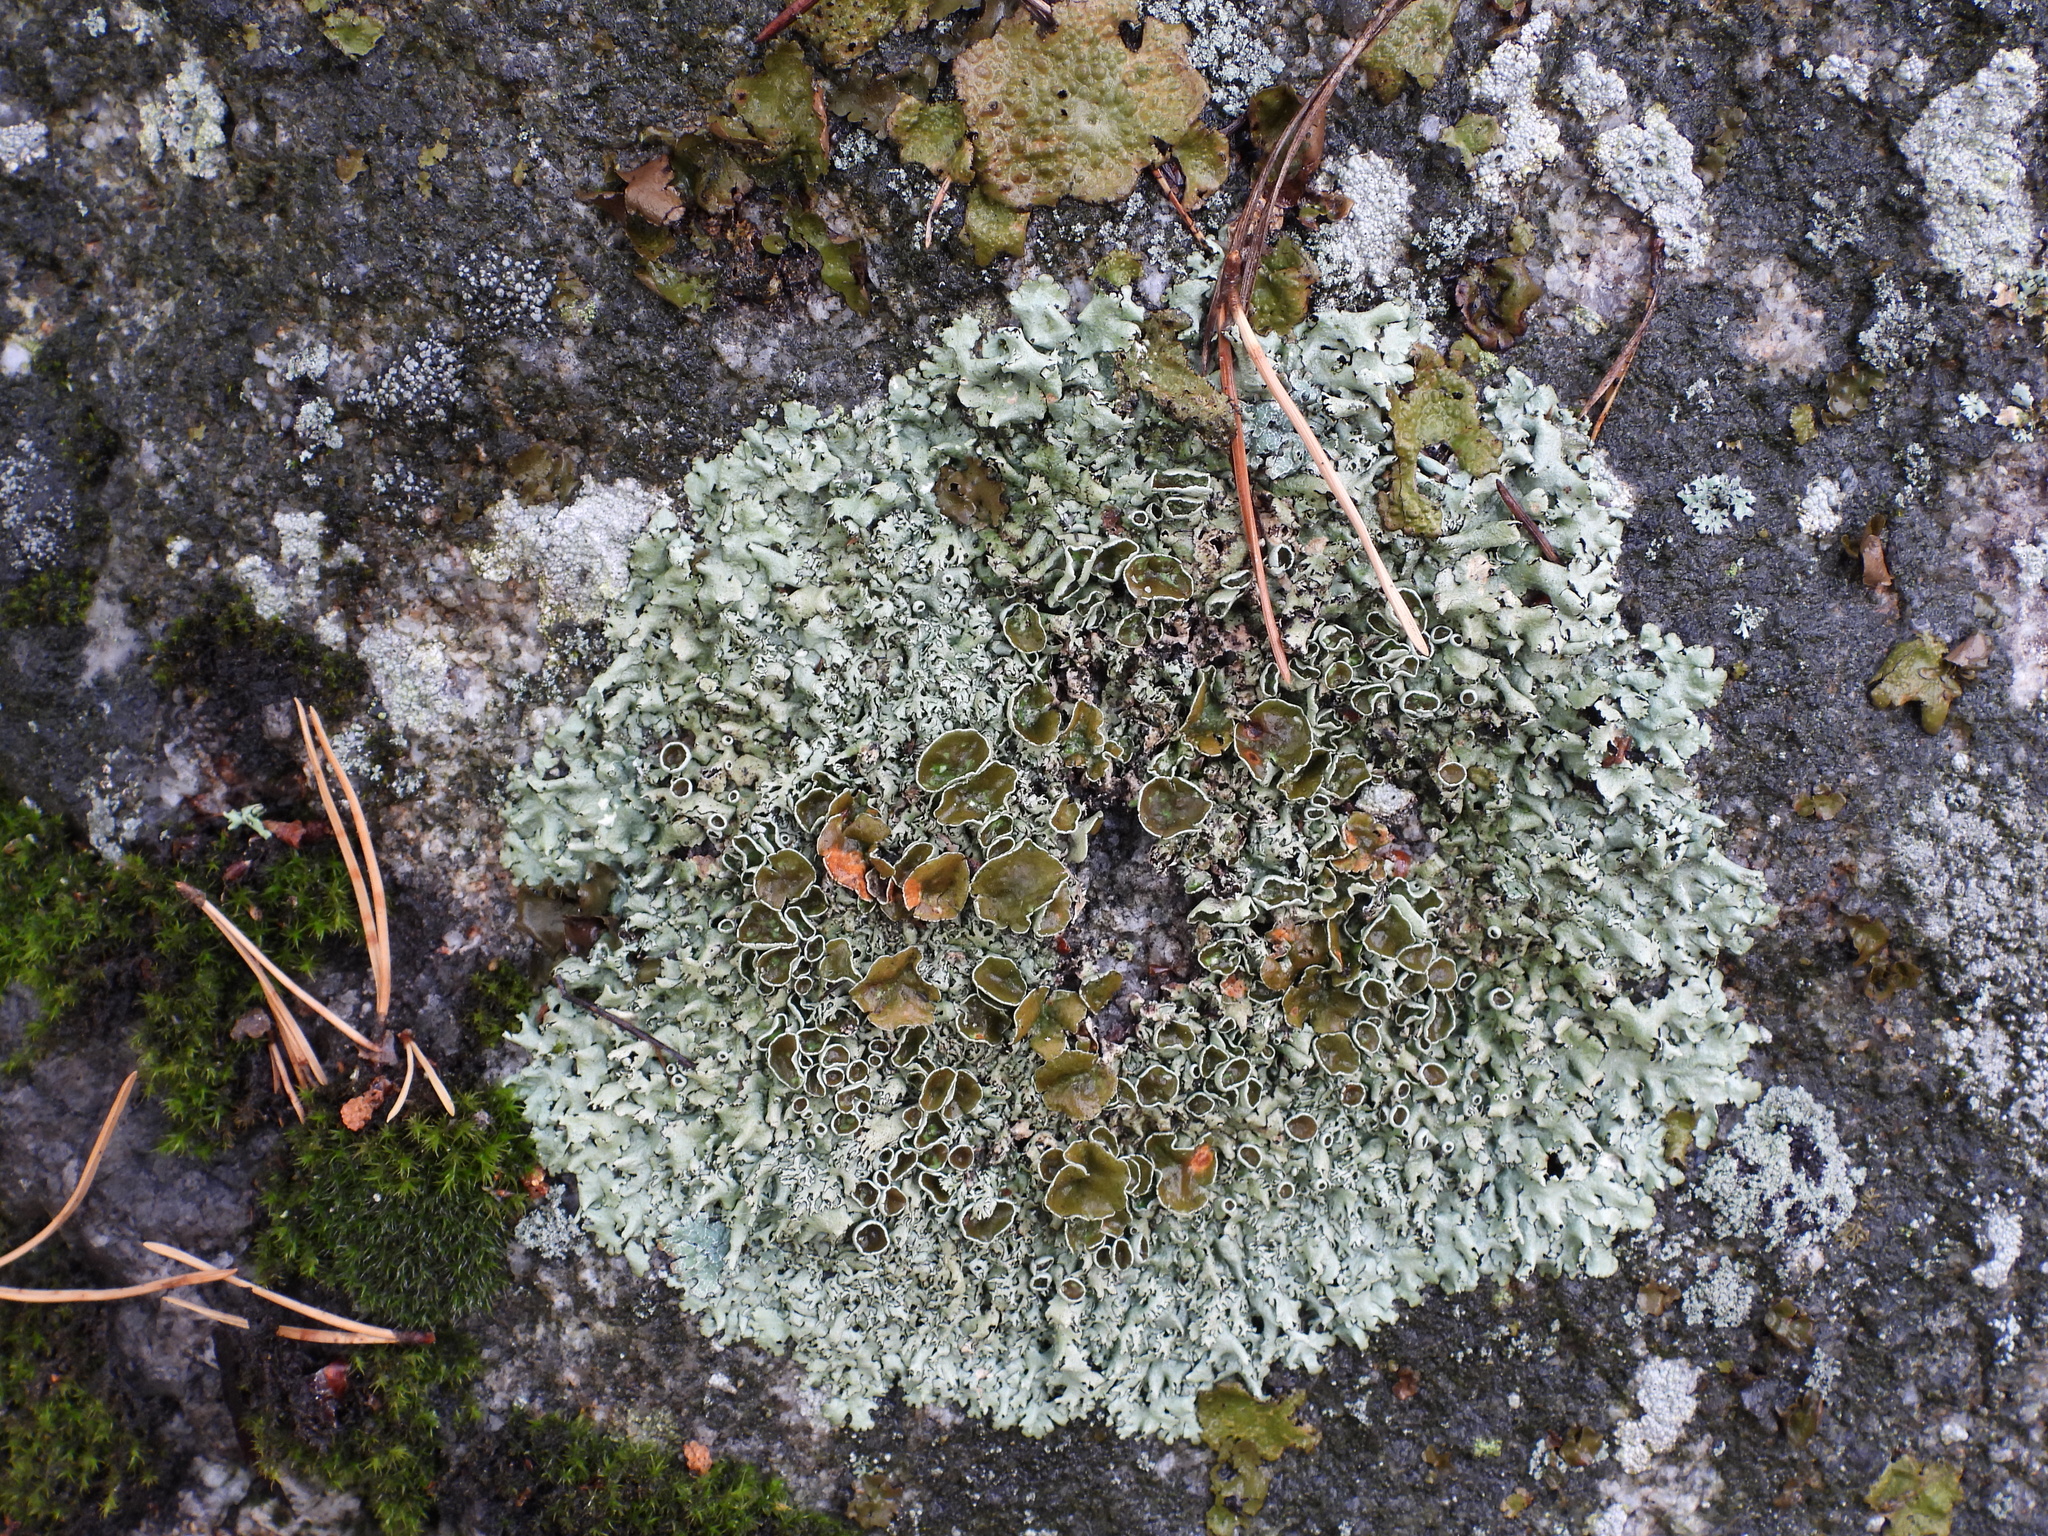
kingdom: Fungi
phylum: Ascomycota
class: Lecanoromycetes
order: Lecanorales
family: Parmeliaceae
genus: Xanthoparmelia
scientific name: Xanthoparmelia stenophylla
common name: Shingled rock shield
